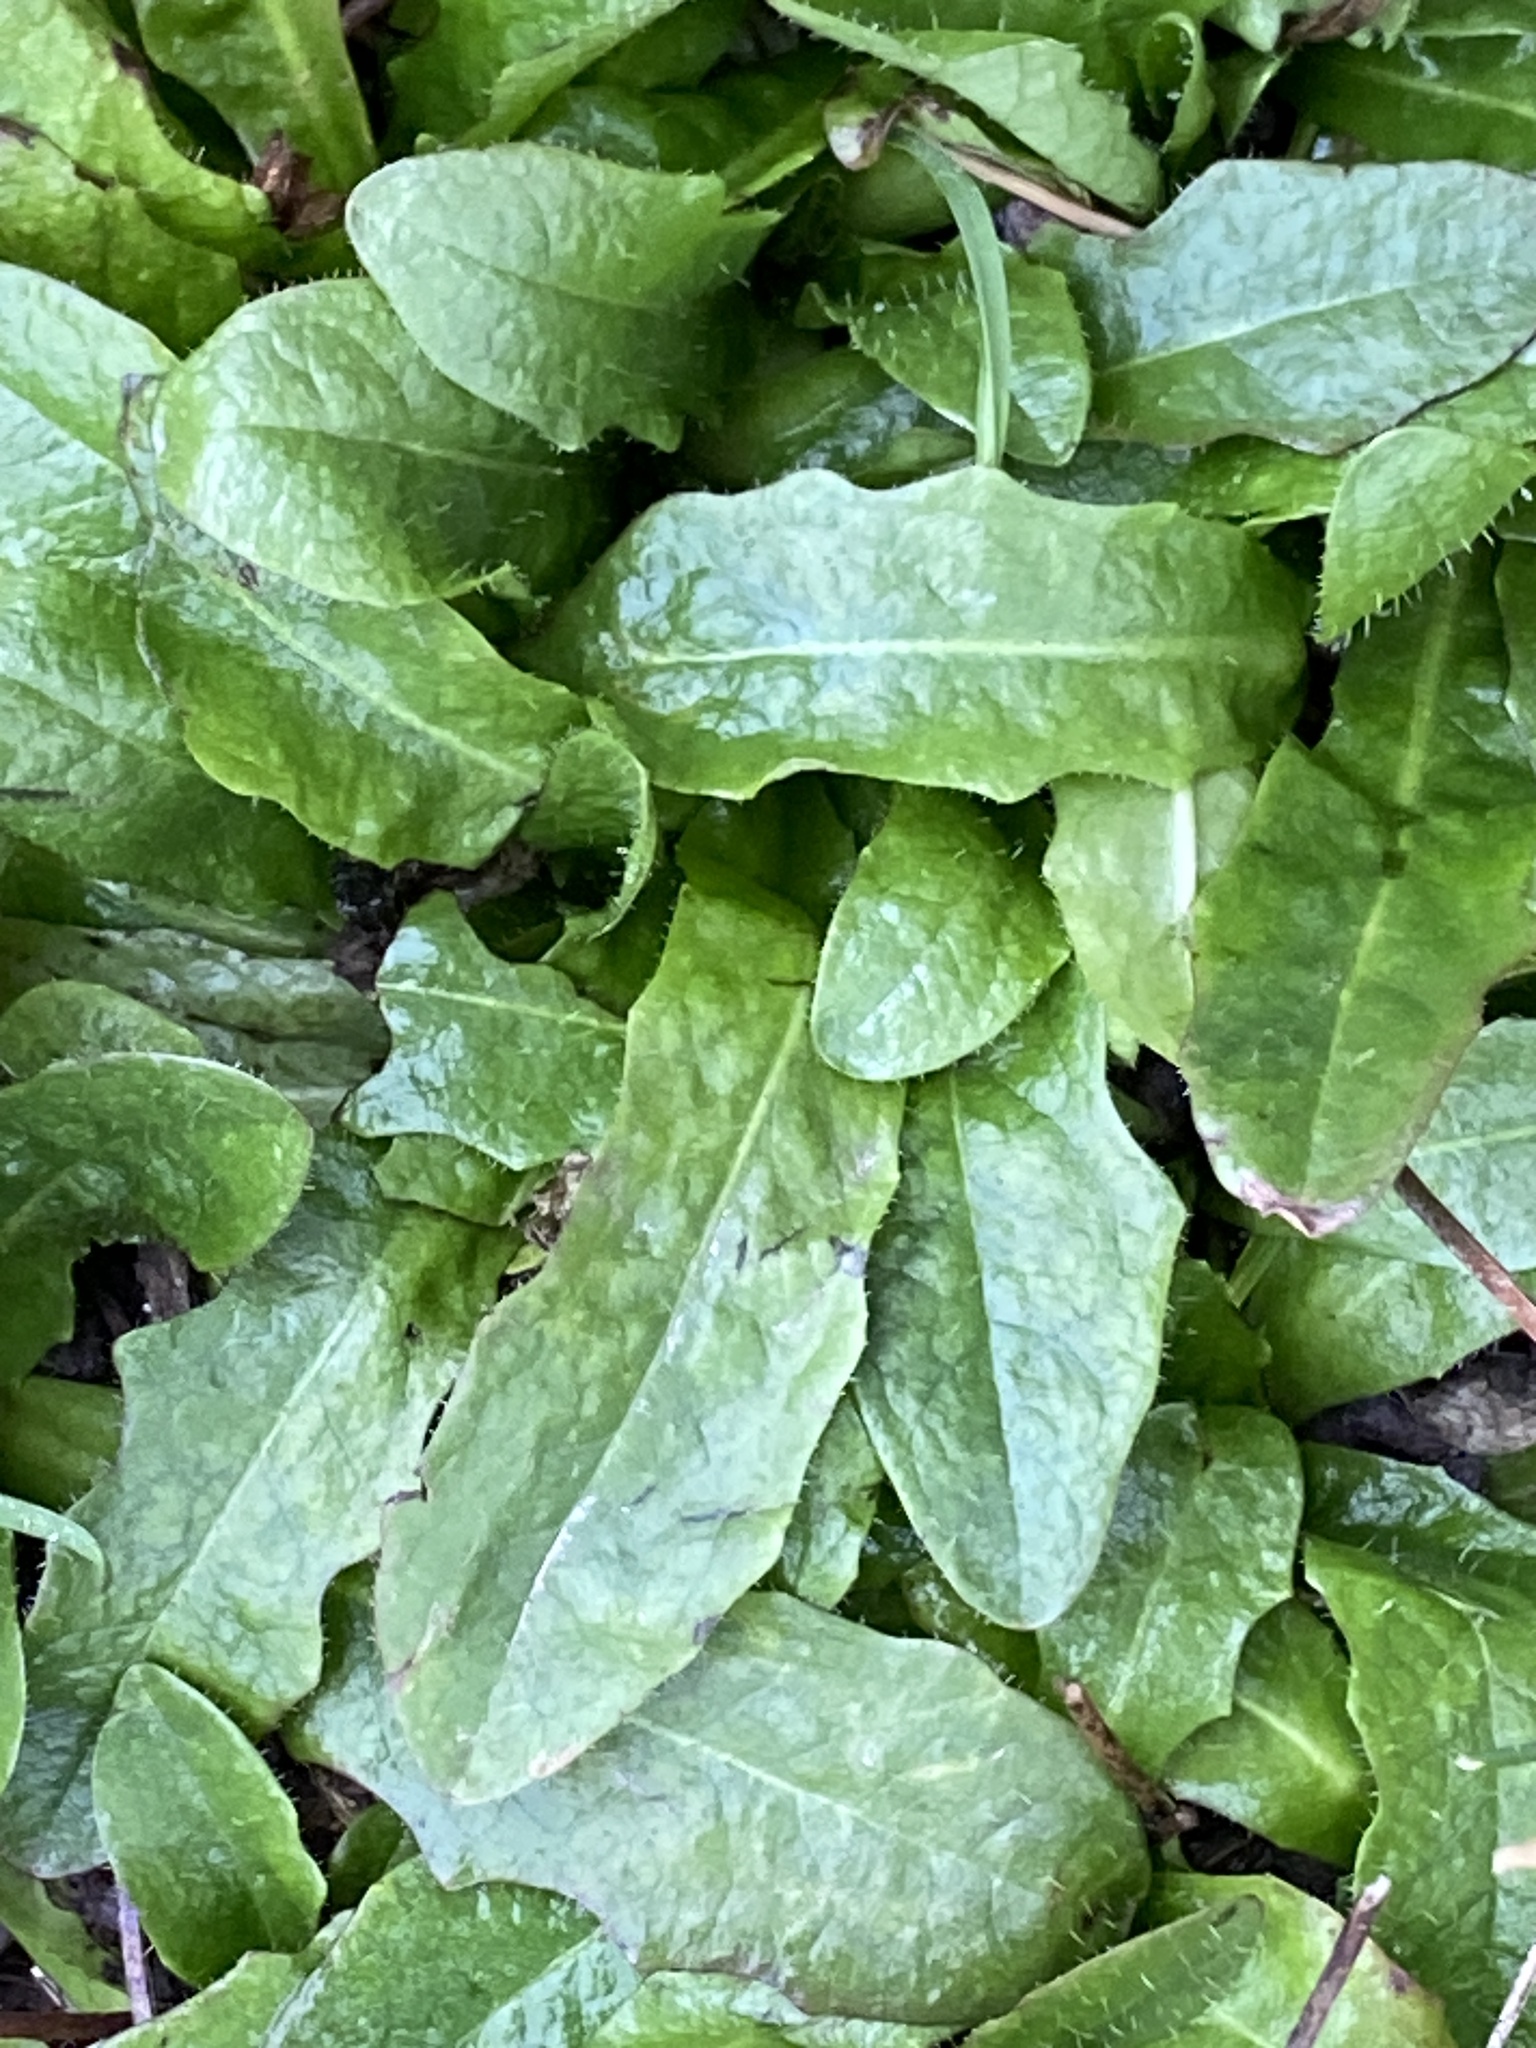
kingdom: Plantae
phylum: Tracheophyta
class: Magnoliopsida
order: Asterales
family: Asteraceae
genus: Hypochaeris
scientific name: Hypochaeris radicata
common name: Flatweed
